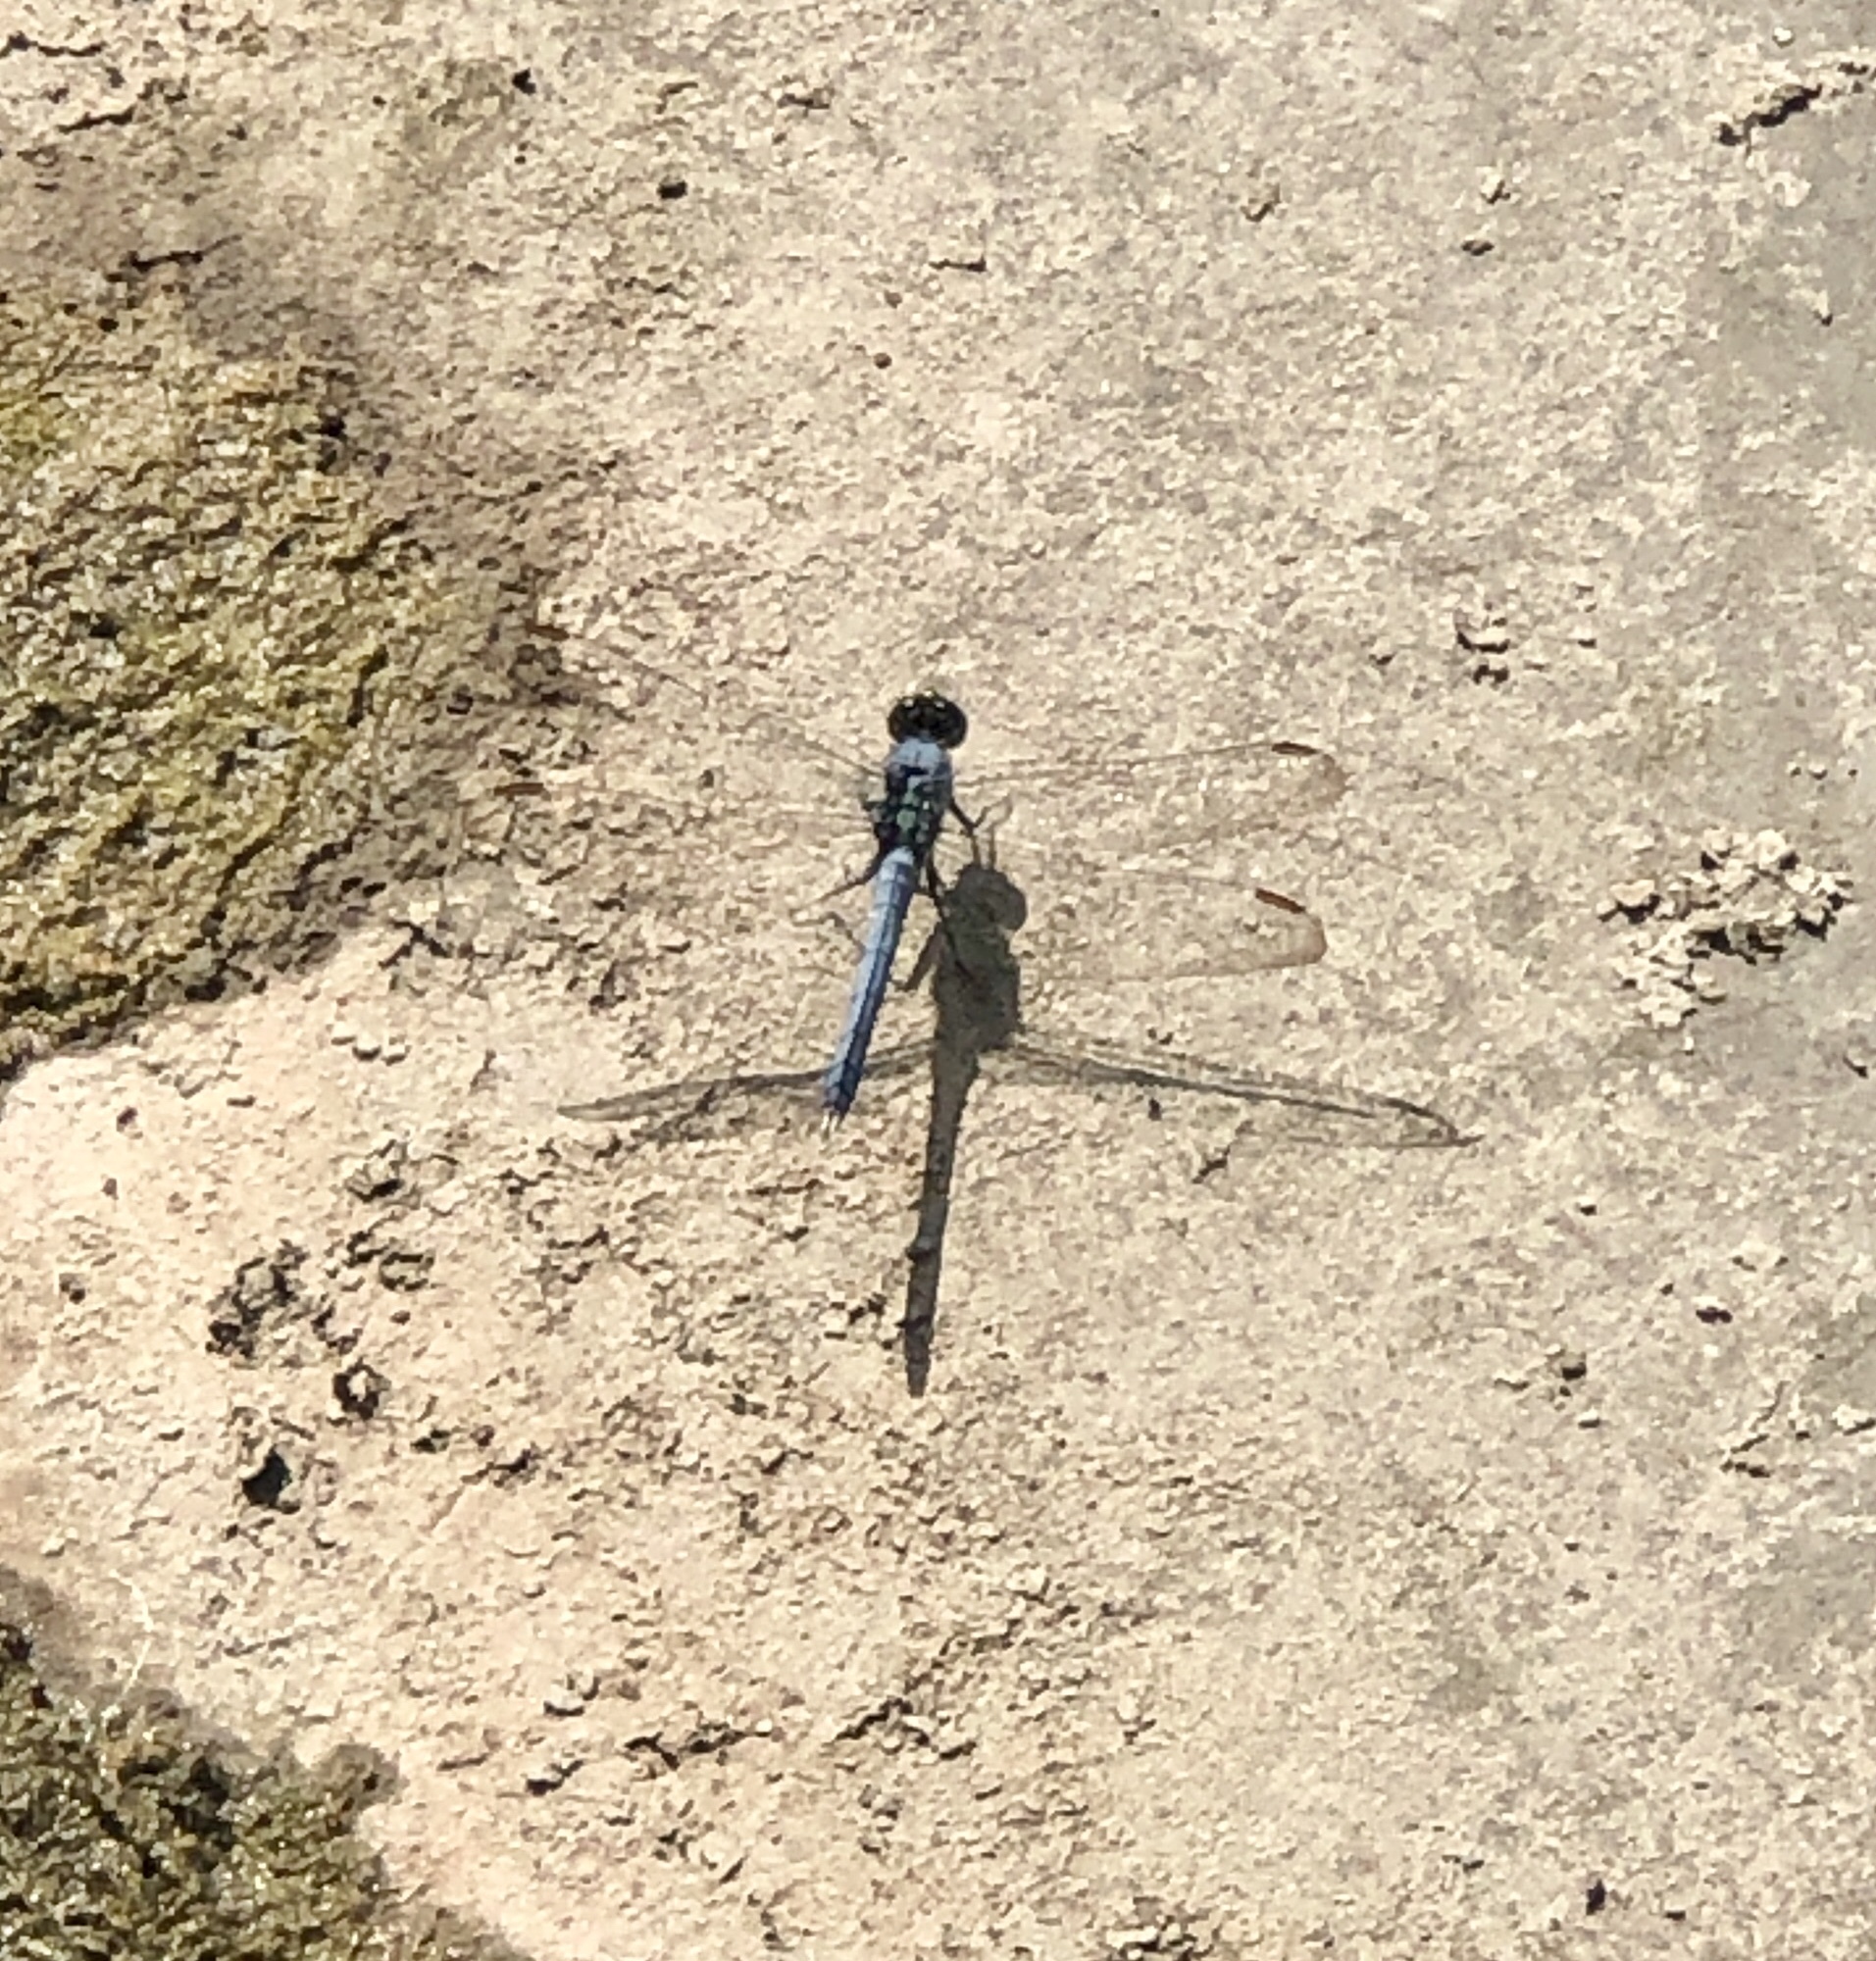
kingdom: Animalia
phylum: Arthropoda
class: Insecta
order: Odonata
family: Libellulidae
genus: Erythemis
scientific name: Erythemis simplicicollis
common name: Eastern pondhawk
